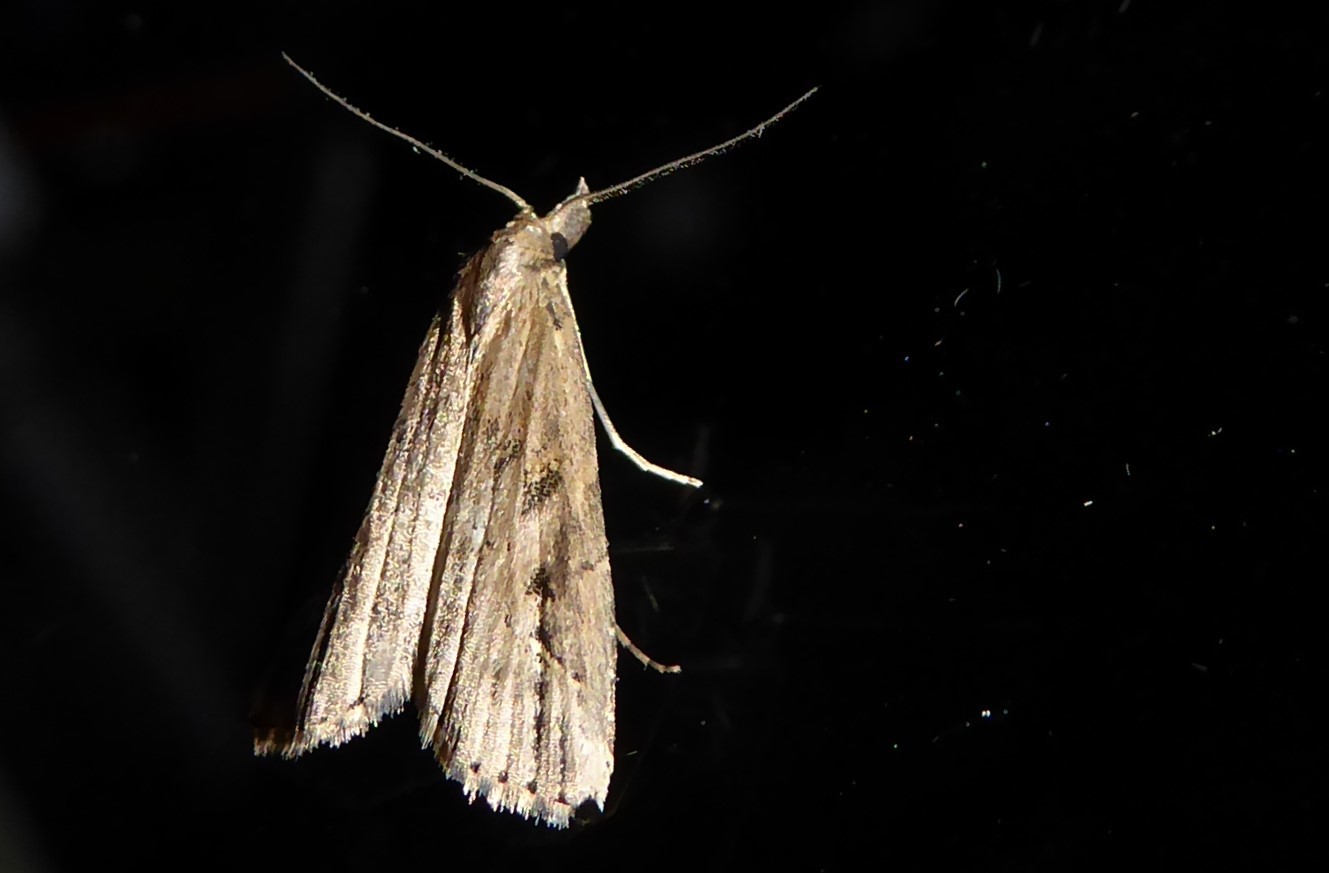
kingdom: Animalia
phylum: Arthropoda
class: Insecta
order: Lepidoptera
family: Erebidae
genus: Schrankia
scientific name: Schrankia costaestrigalis
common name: Pinion-streaked snout
